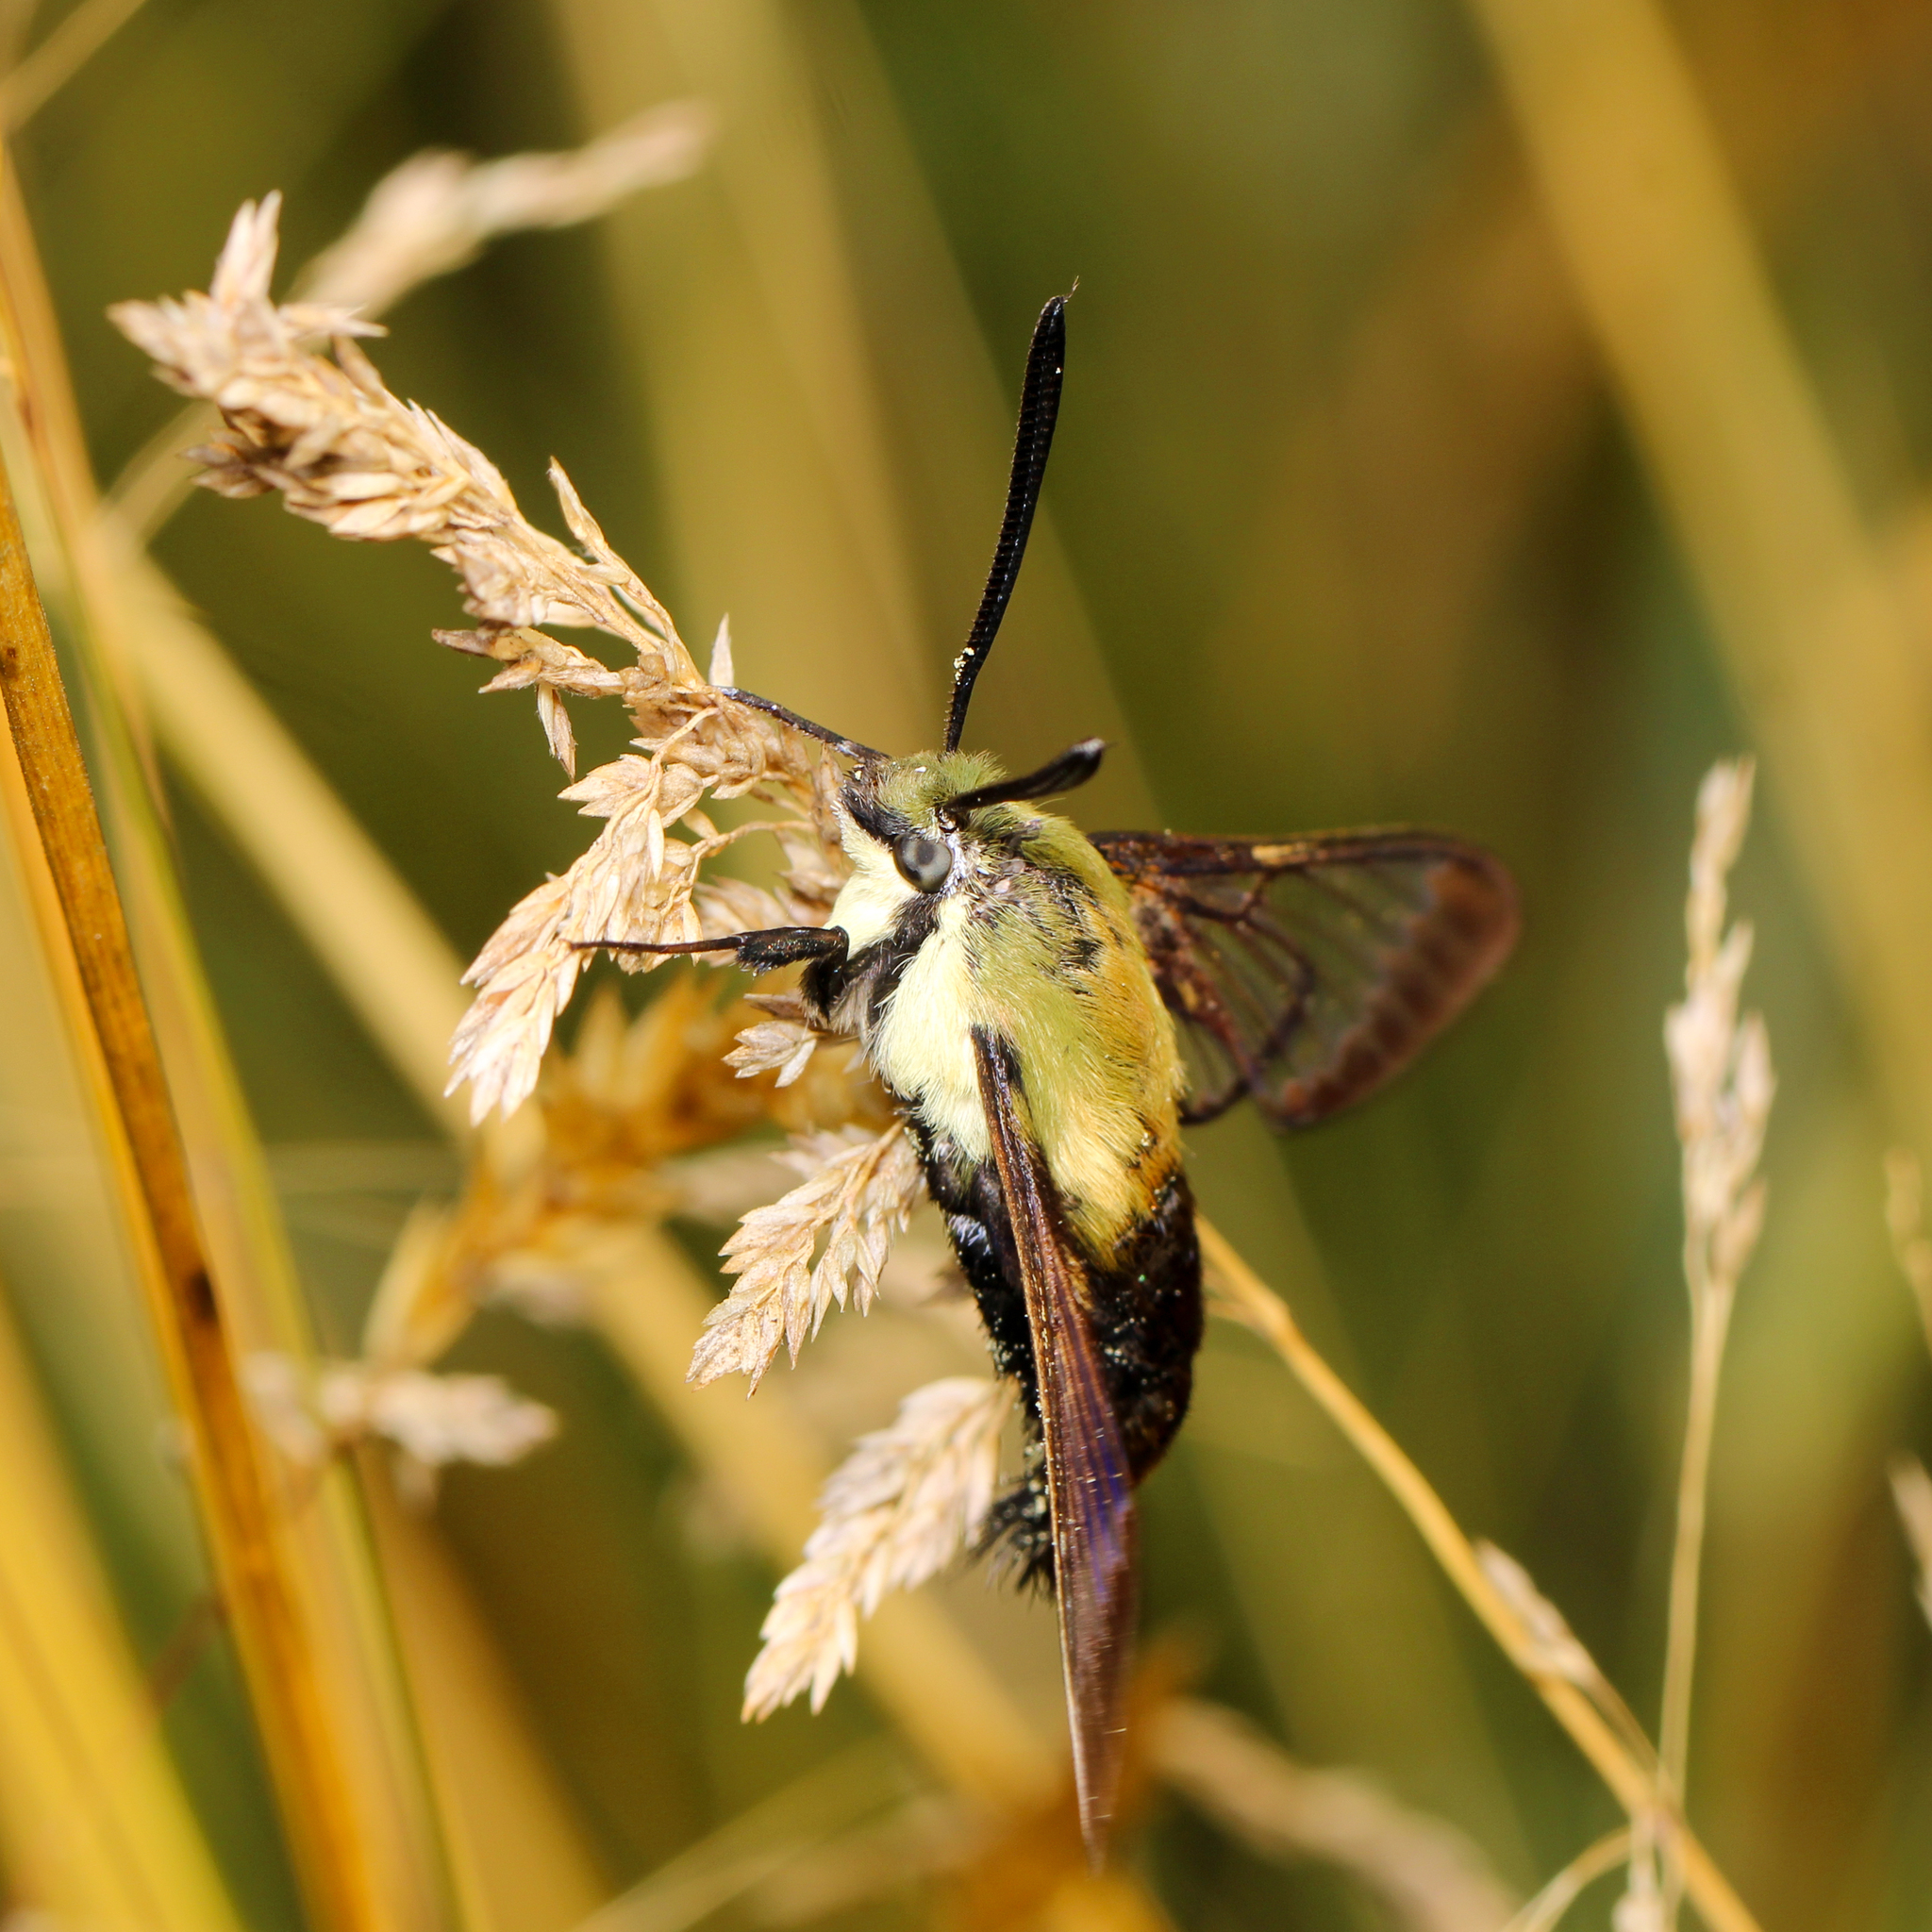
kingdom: Animalia
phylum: Arthropoda
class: Insecta
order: Lepidoptera
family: Sphingidae
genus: Hemaris
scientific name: Hemaris diffinis
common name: Bumblebee moth
